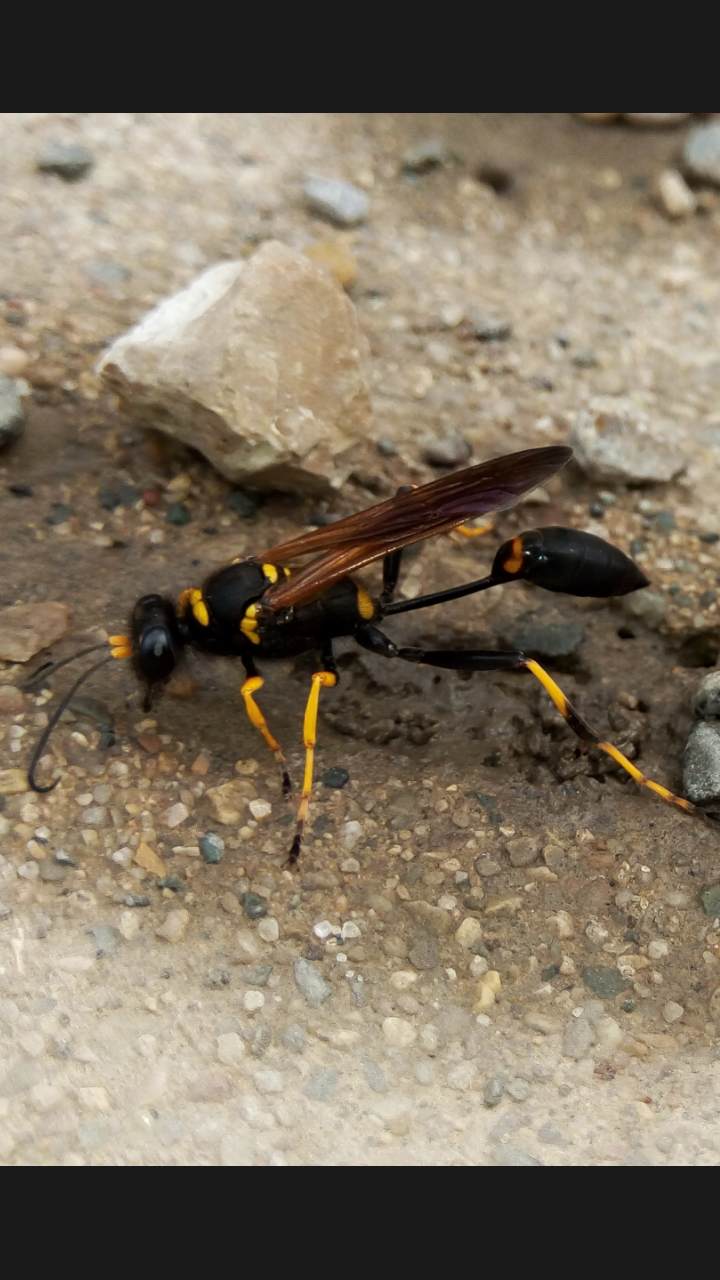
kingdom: Animalia
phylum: Arthropoda
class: Insecta
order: Hymenoptera
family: Sphecidae
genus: Sceliphron
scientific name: Sceliphron caementarium
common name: Mud dauber
